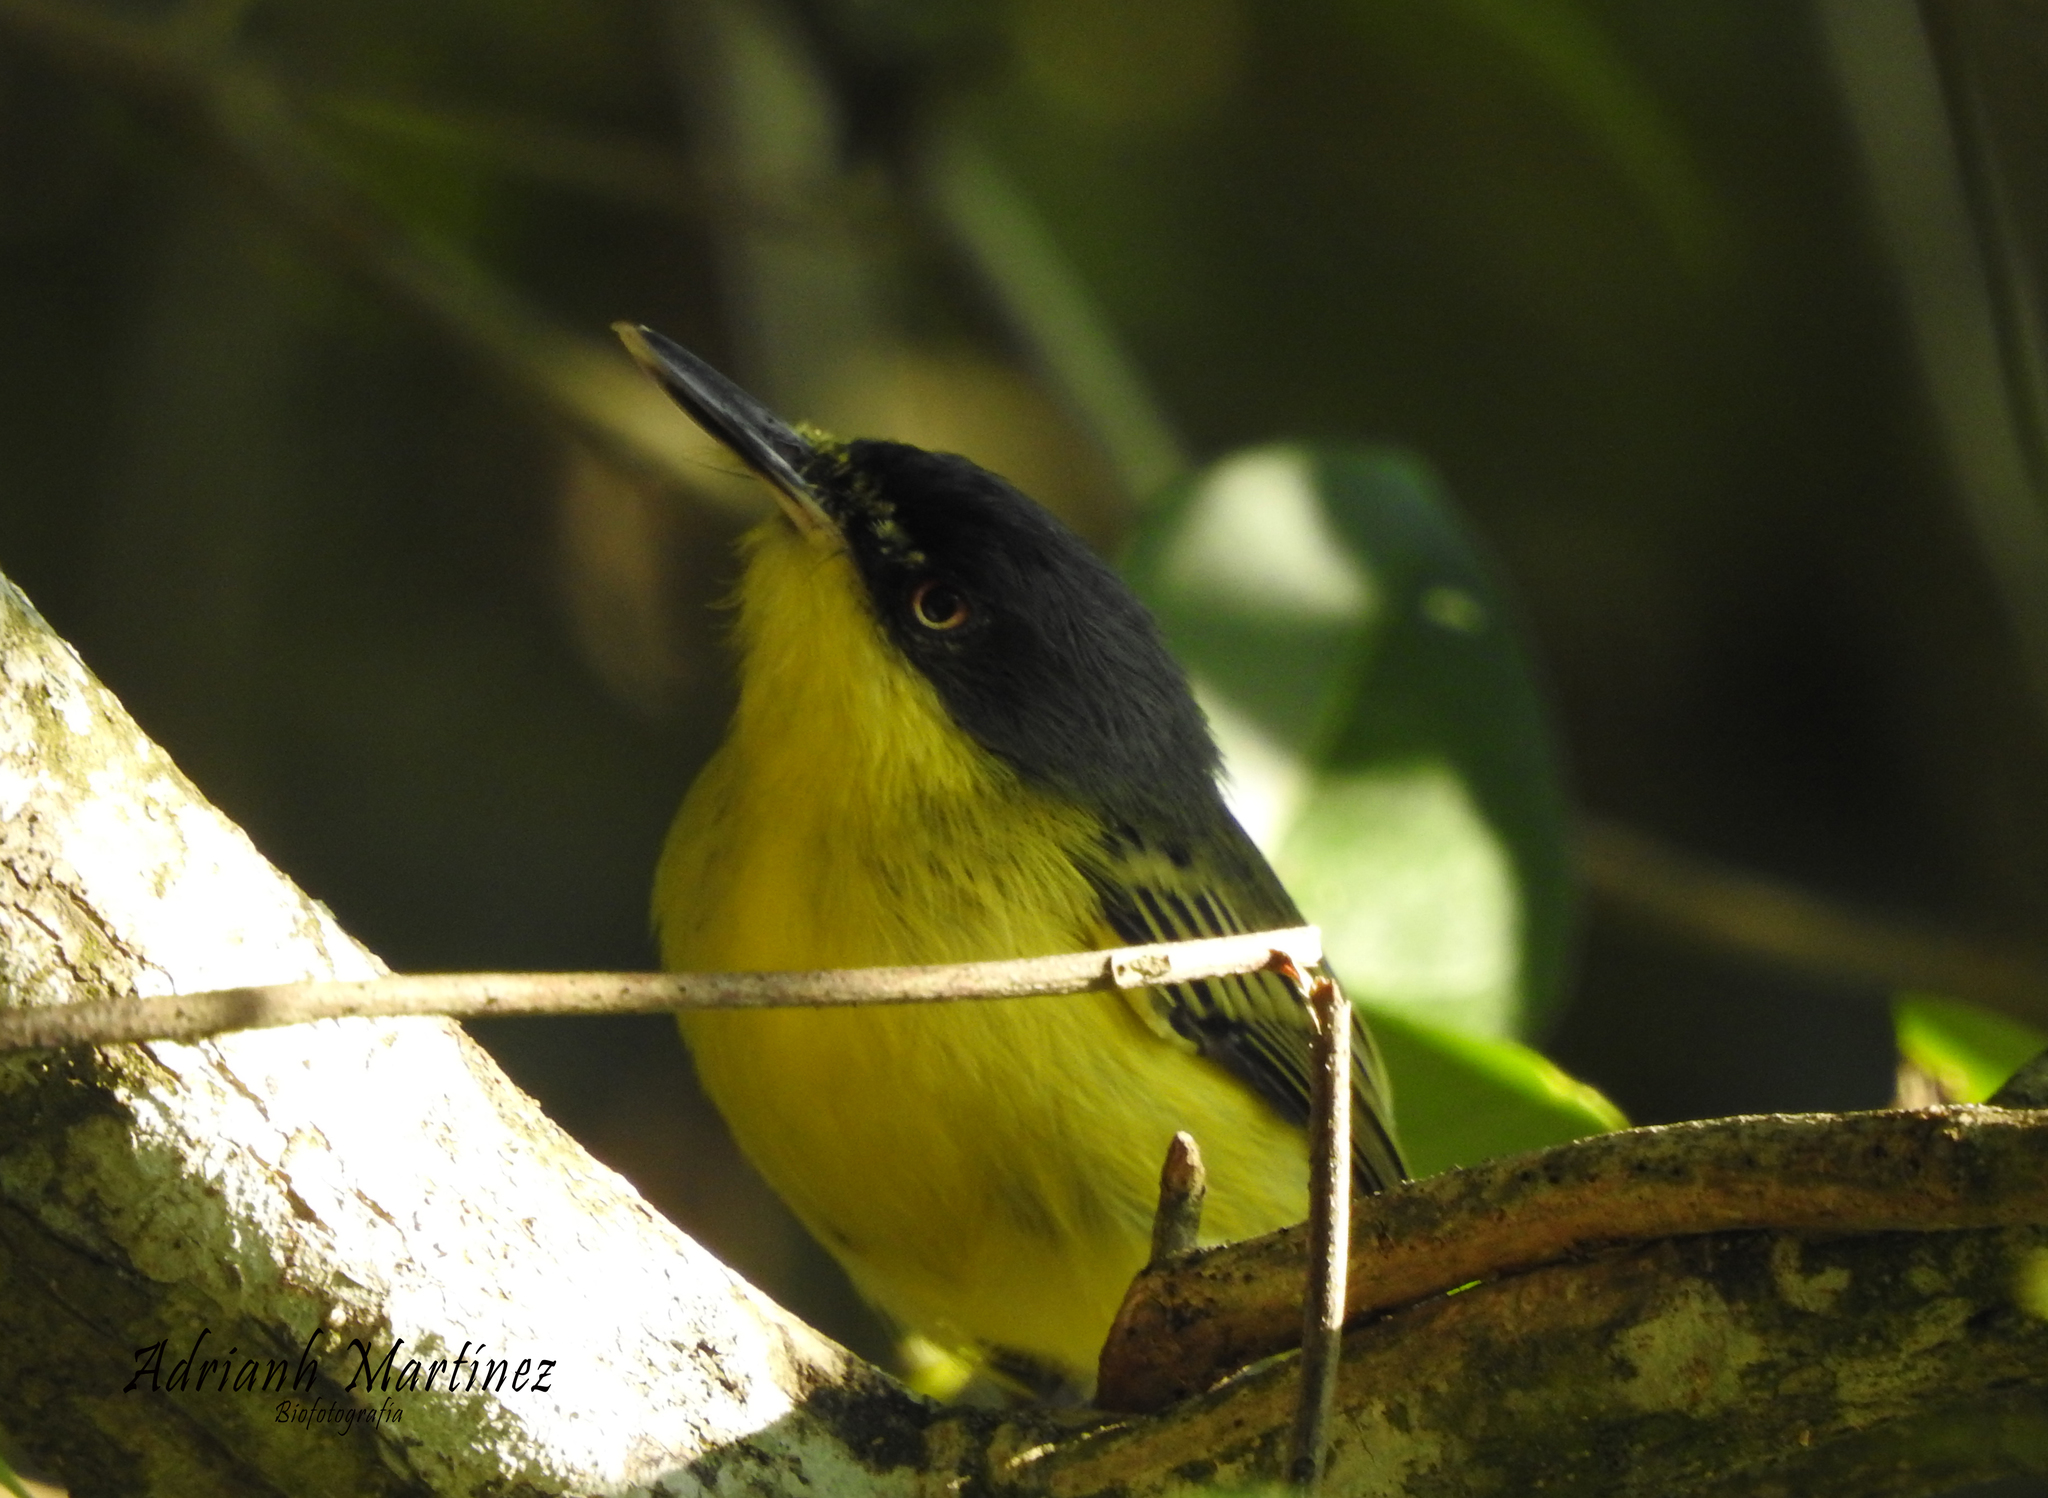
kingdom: Animalia
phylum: Chordata
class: Aves
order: Passeriformes
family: Tyrannidae
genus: Todirostrum
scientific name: Todirostrum cinereum
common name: Common tody-flycatcher
